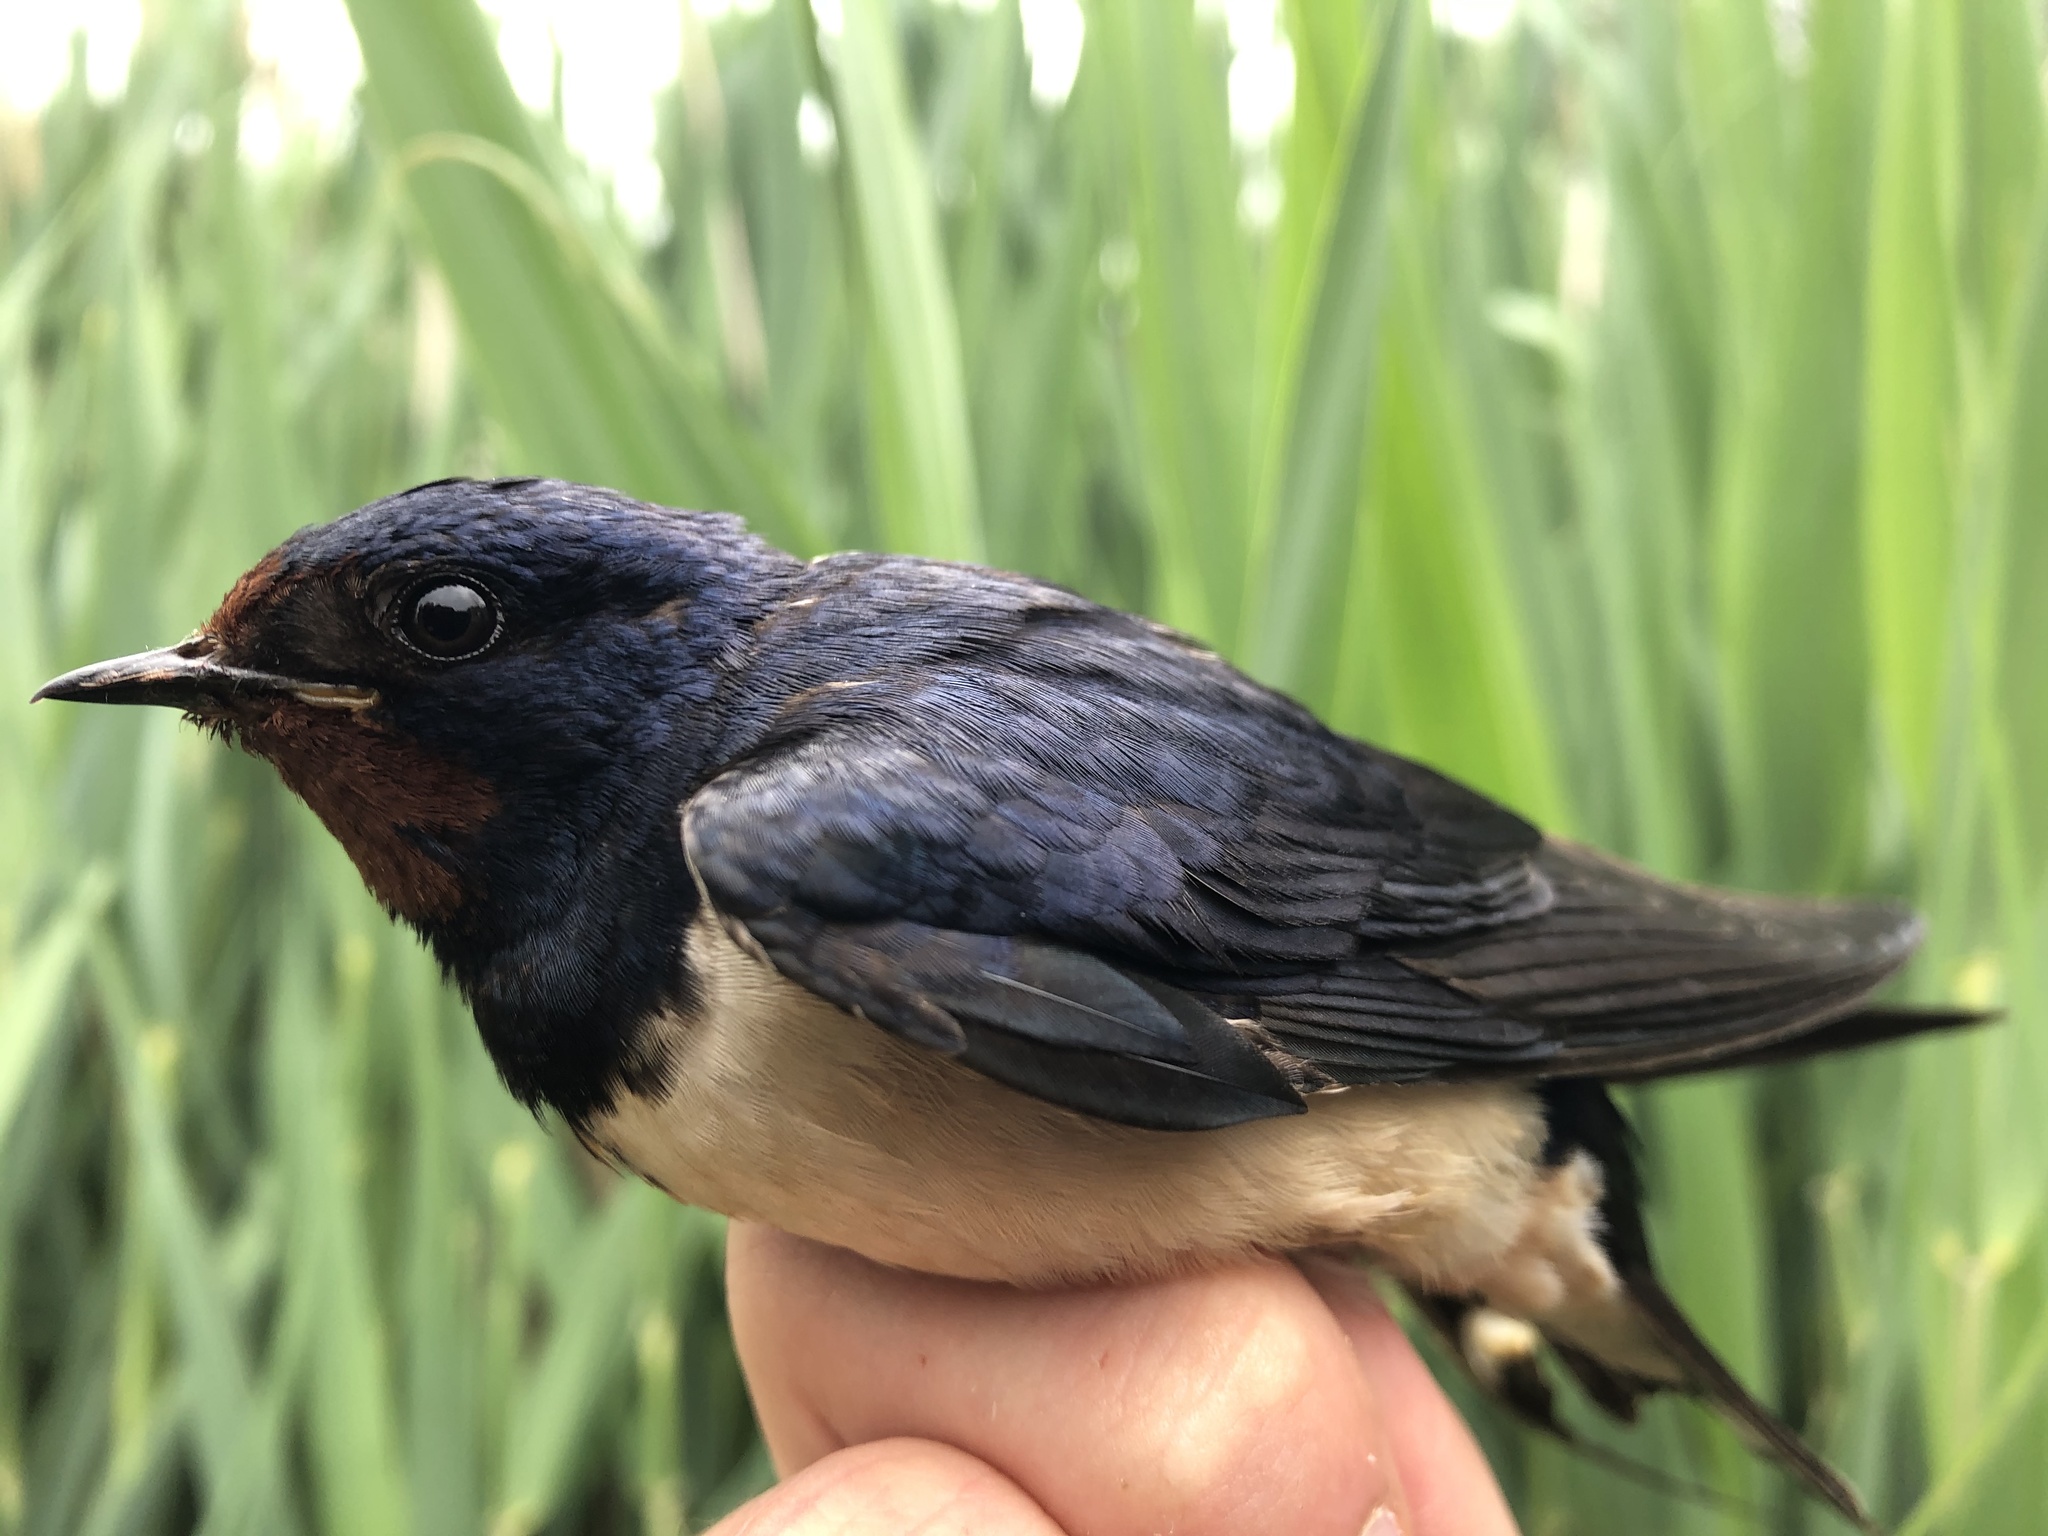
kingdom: Animalia
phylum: Chordata
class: Aves
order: Passeriformes
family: Hirundinidae
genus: Hirundo
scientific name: Hirundo rustica
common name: Barn swallow
